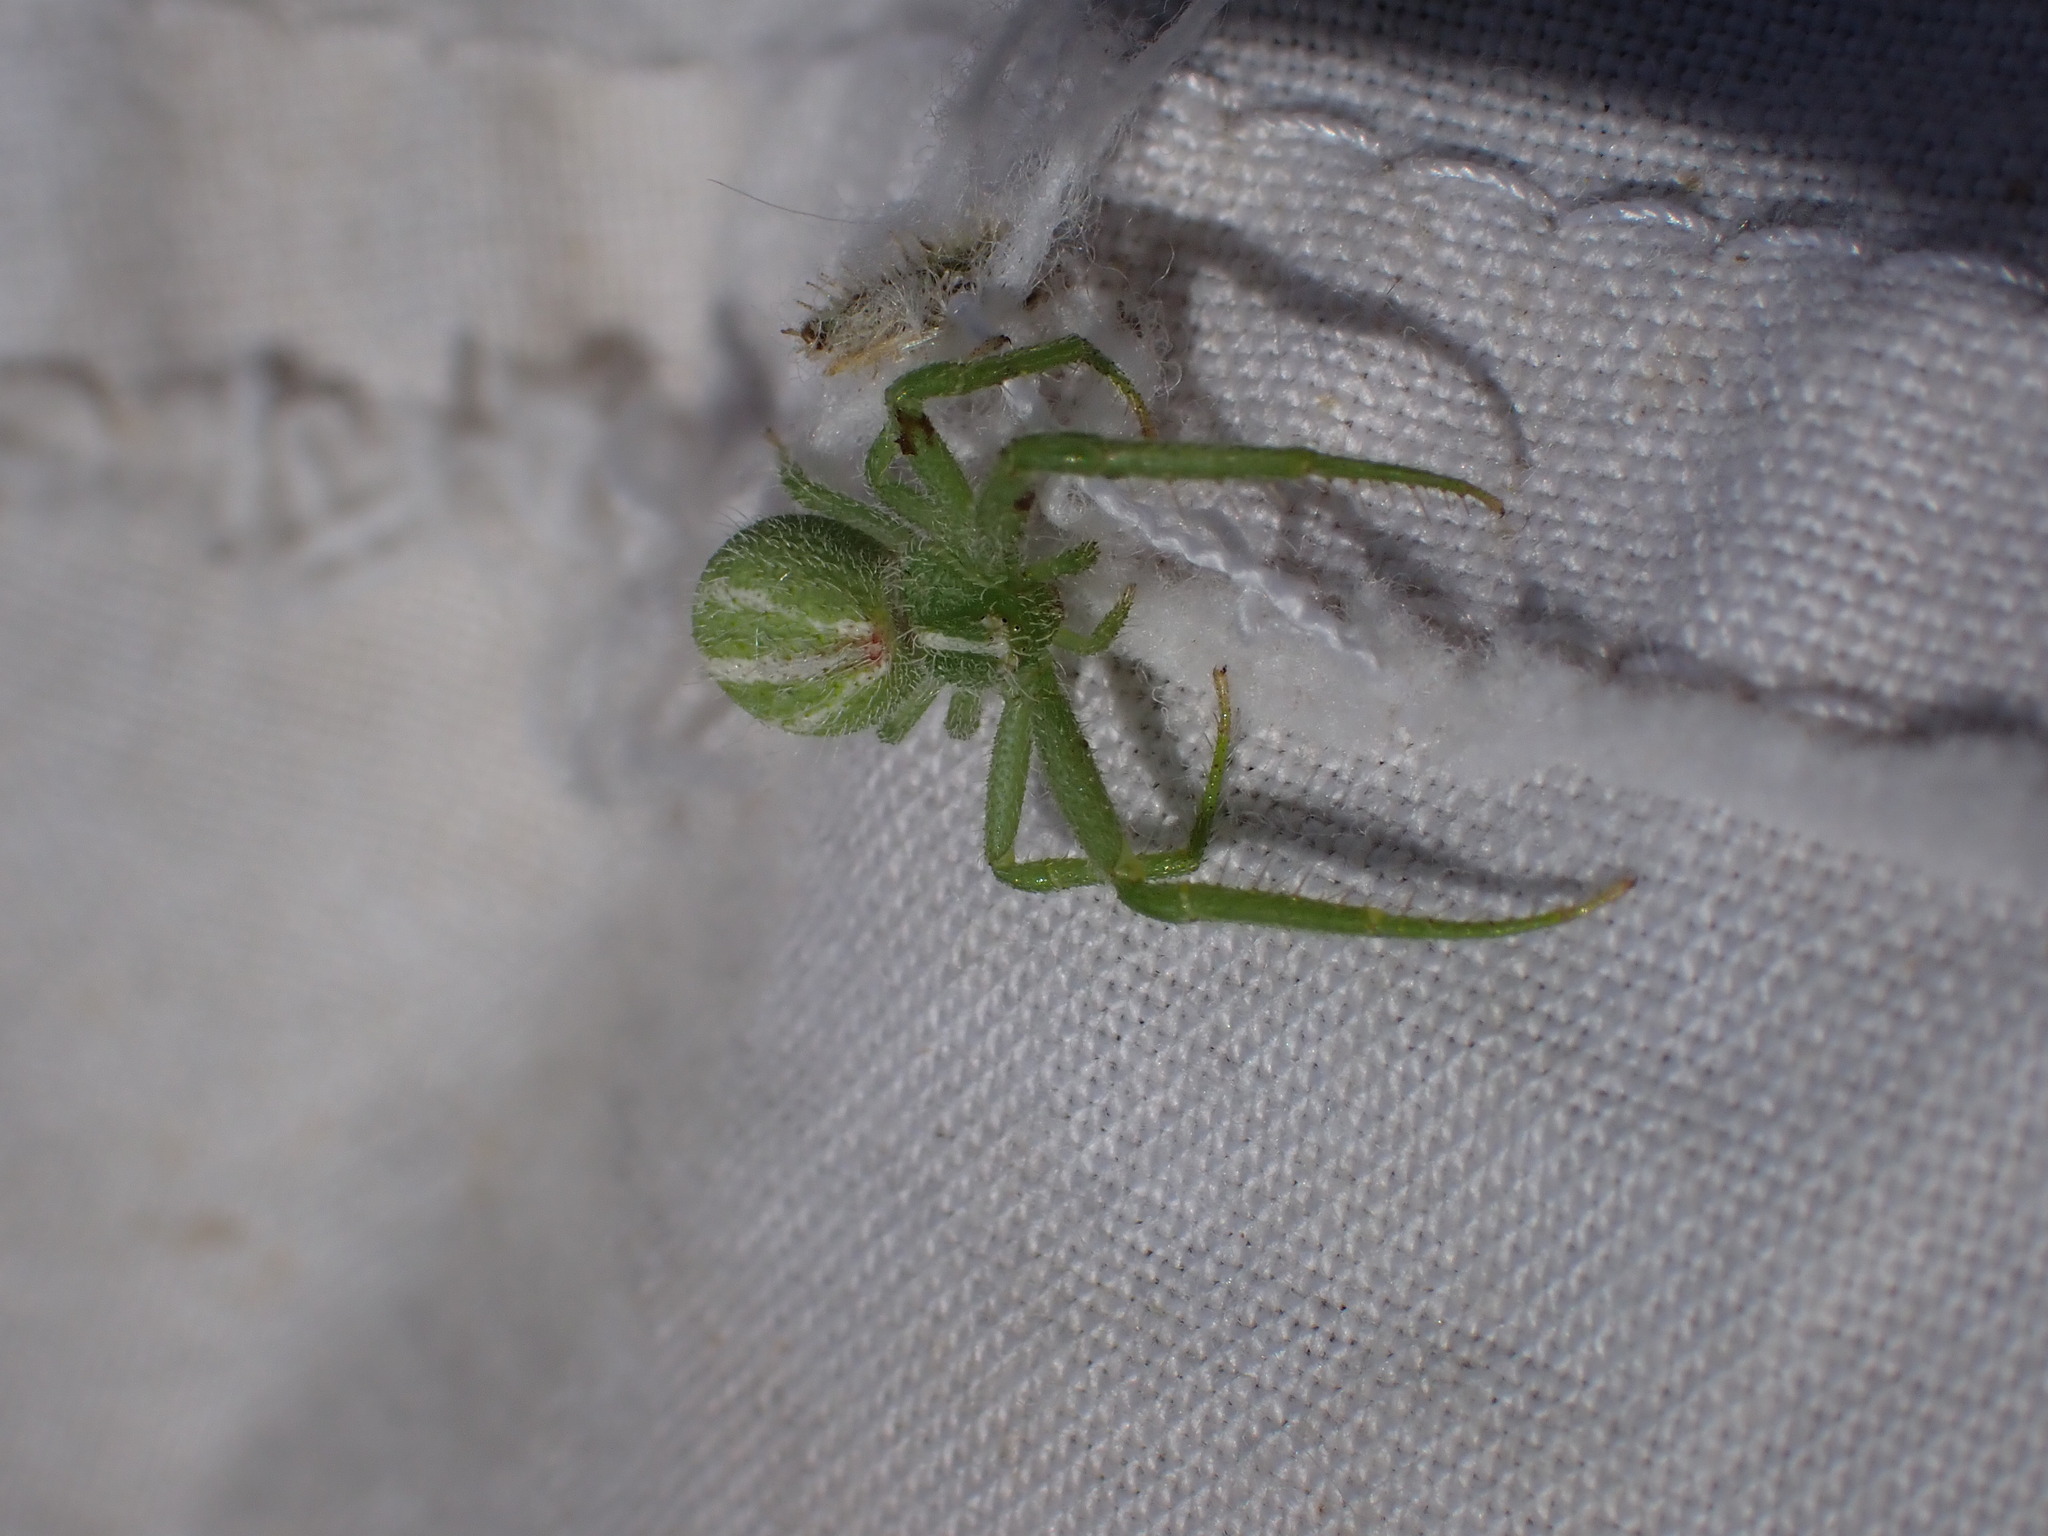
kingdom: Animalia
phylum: Arthropoda
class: Arachnida
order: Araneae
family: Thomisidae
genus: Heriaeus
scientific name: Heriaeus oblongus
